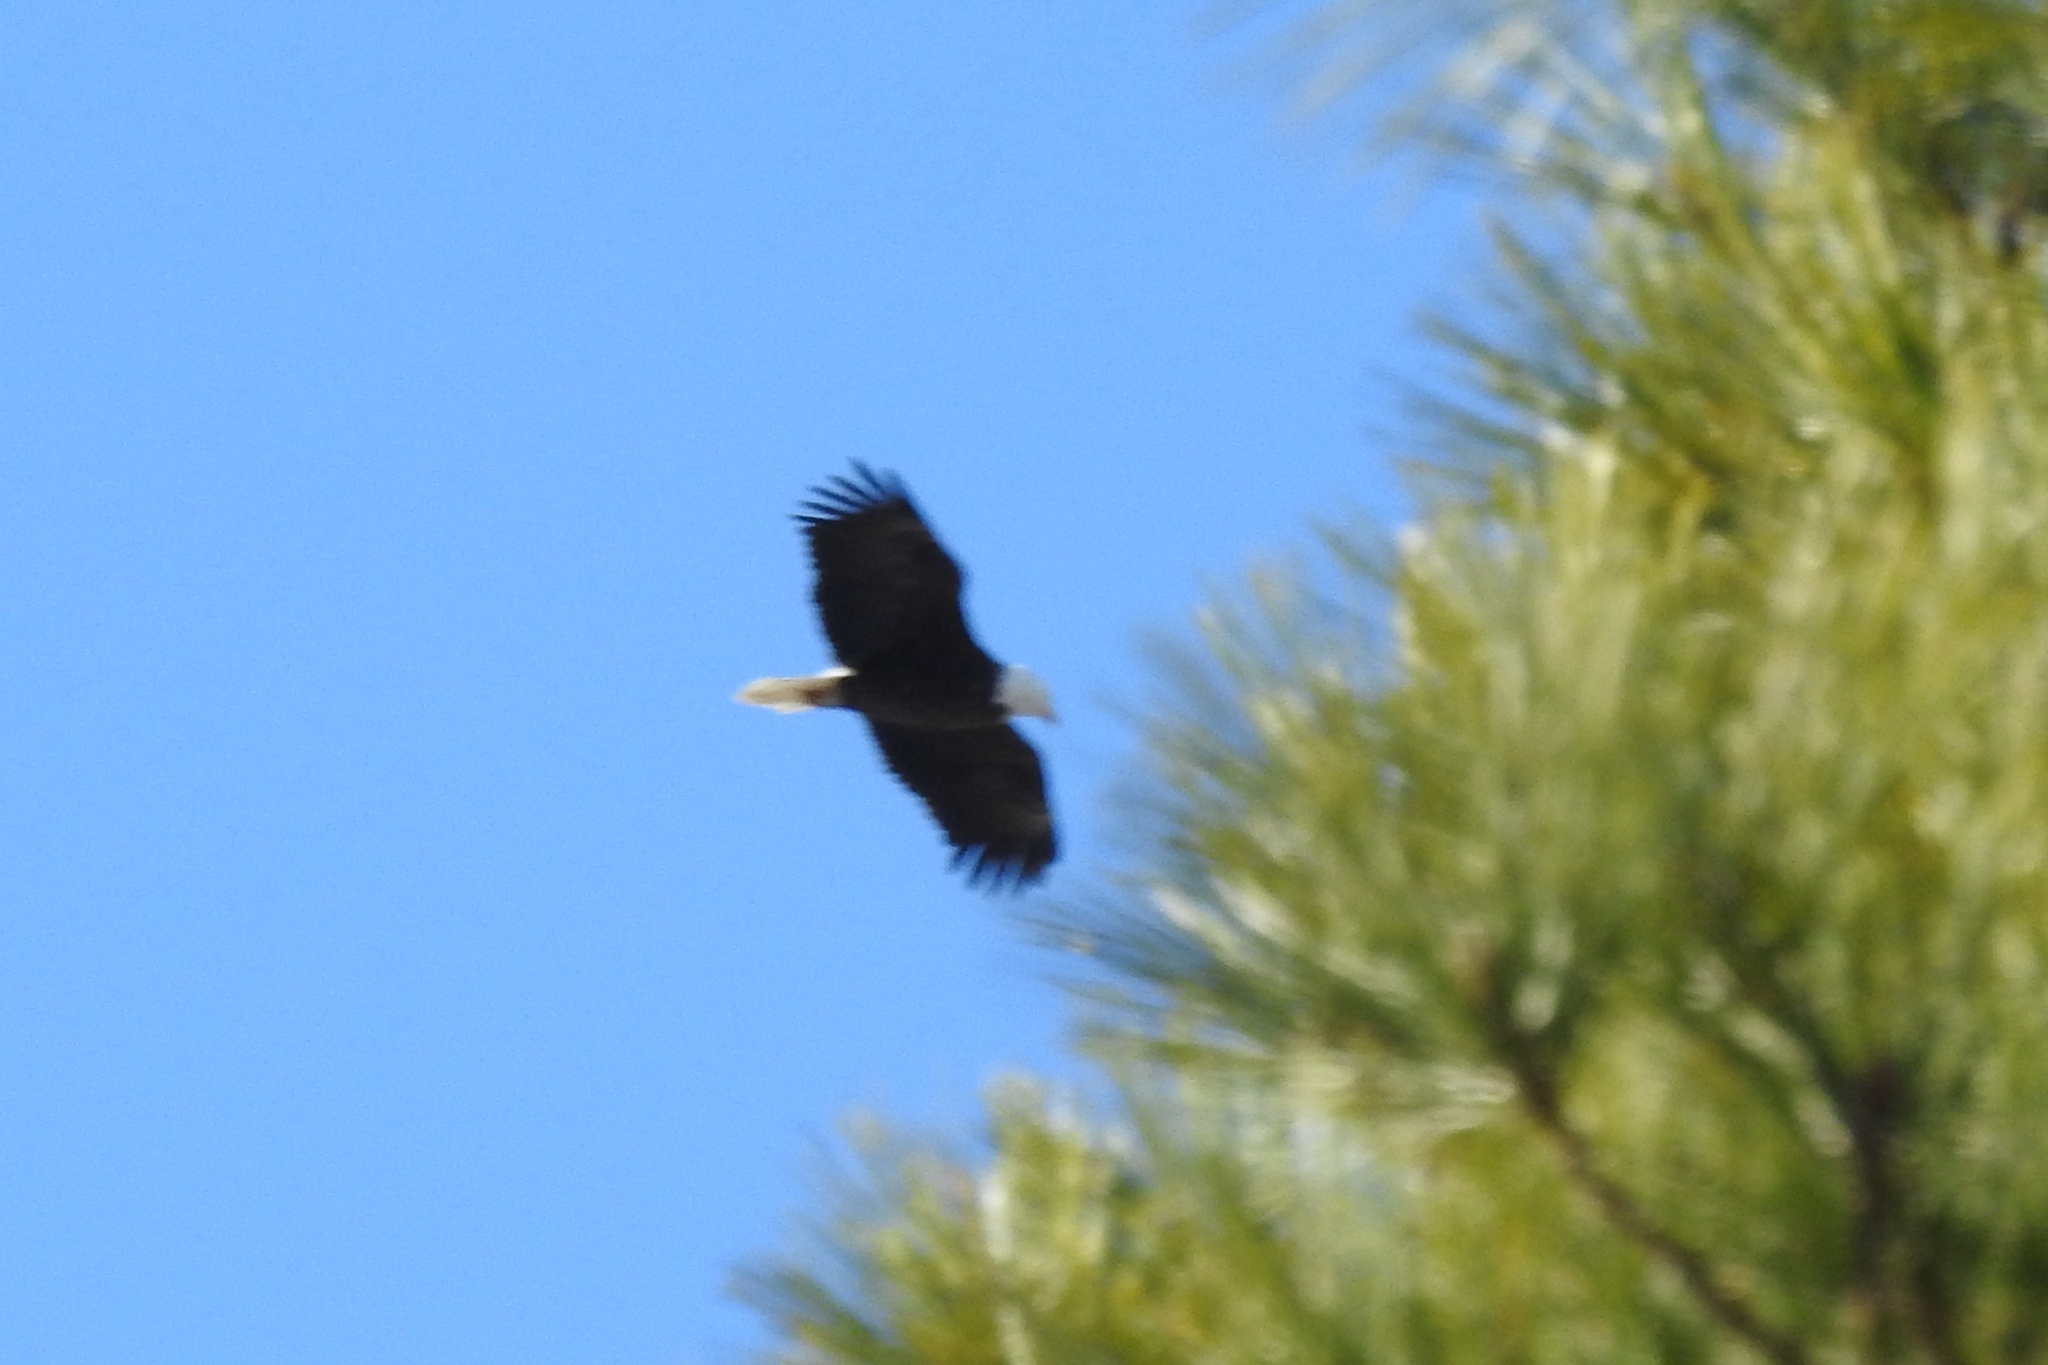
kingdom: Animalia
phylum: Chordata
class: Aves
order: Accipitriformes
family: Accipitridae
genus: Haliaeetus
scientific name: Haliaeetus leucocephalus
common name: Bald eagle
